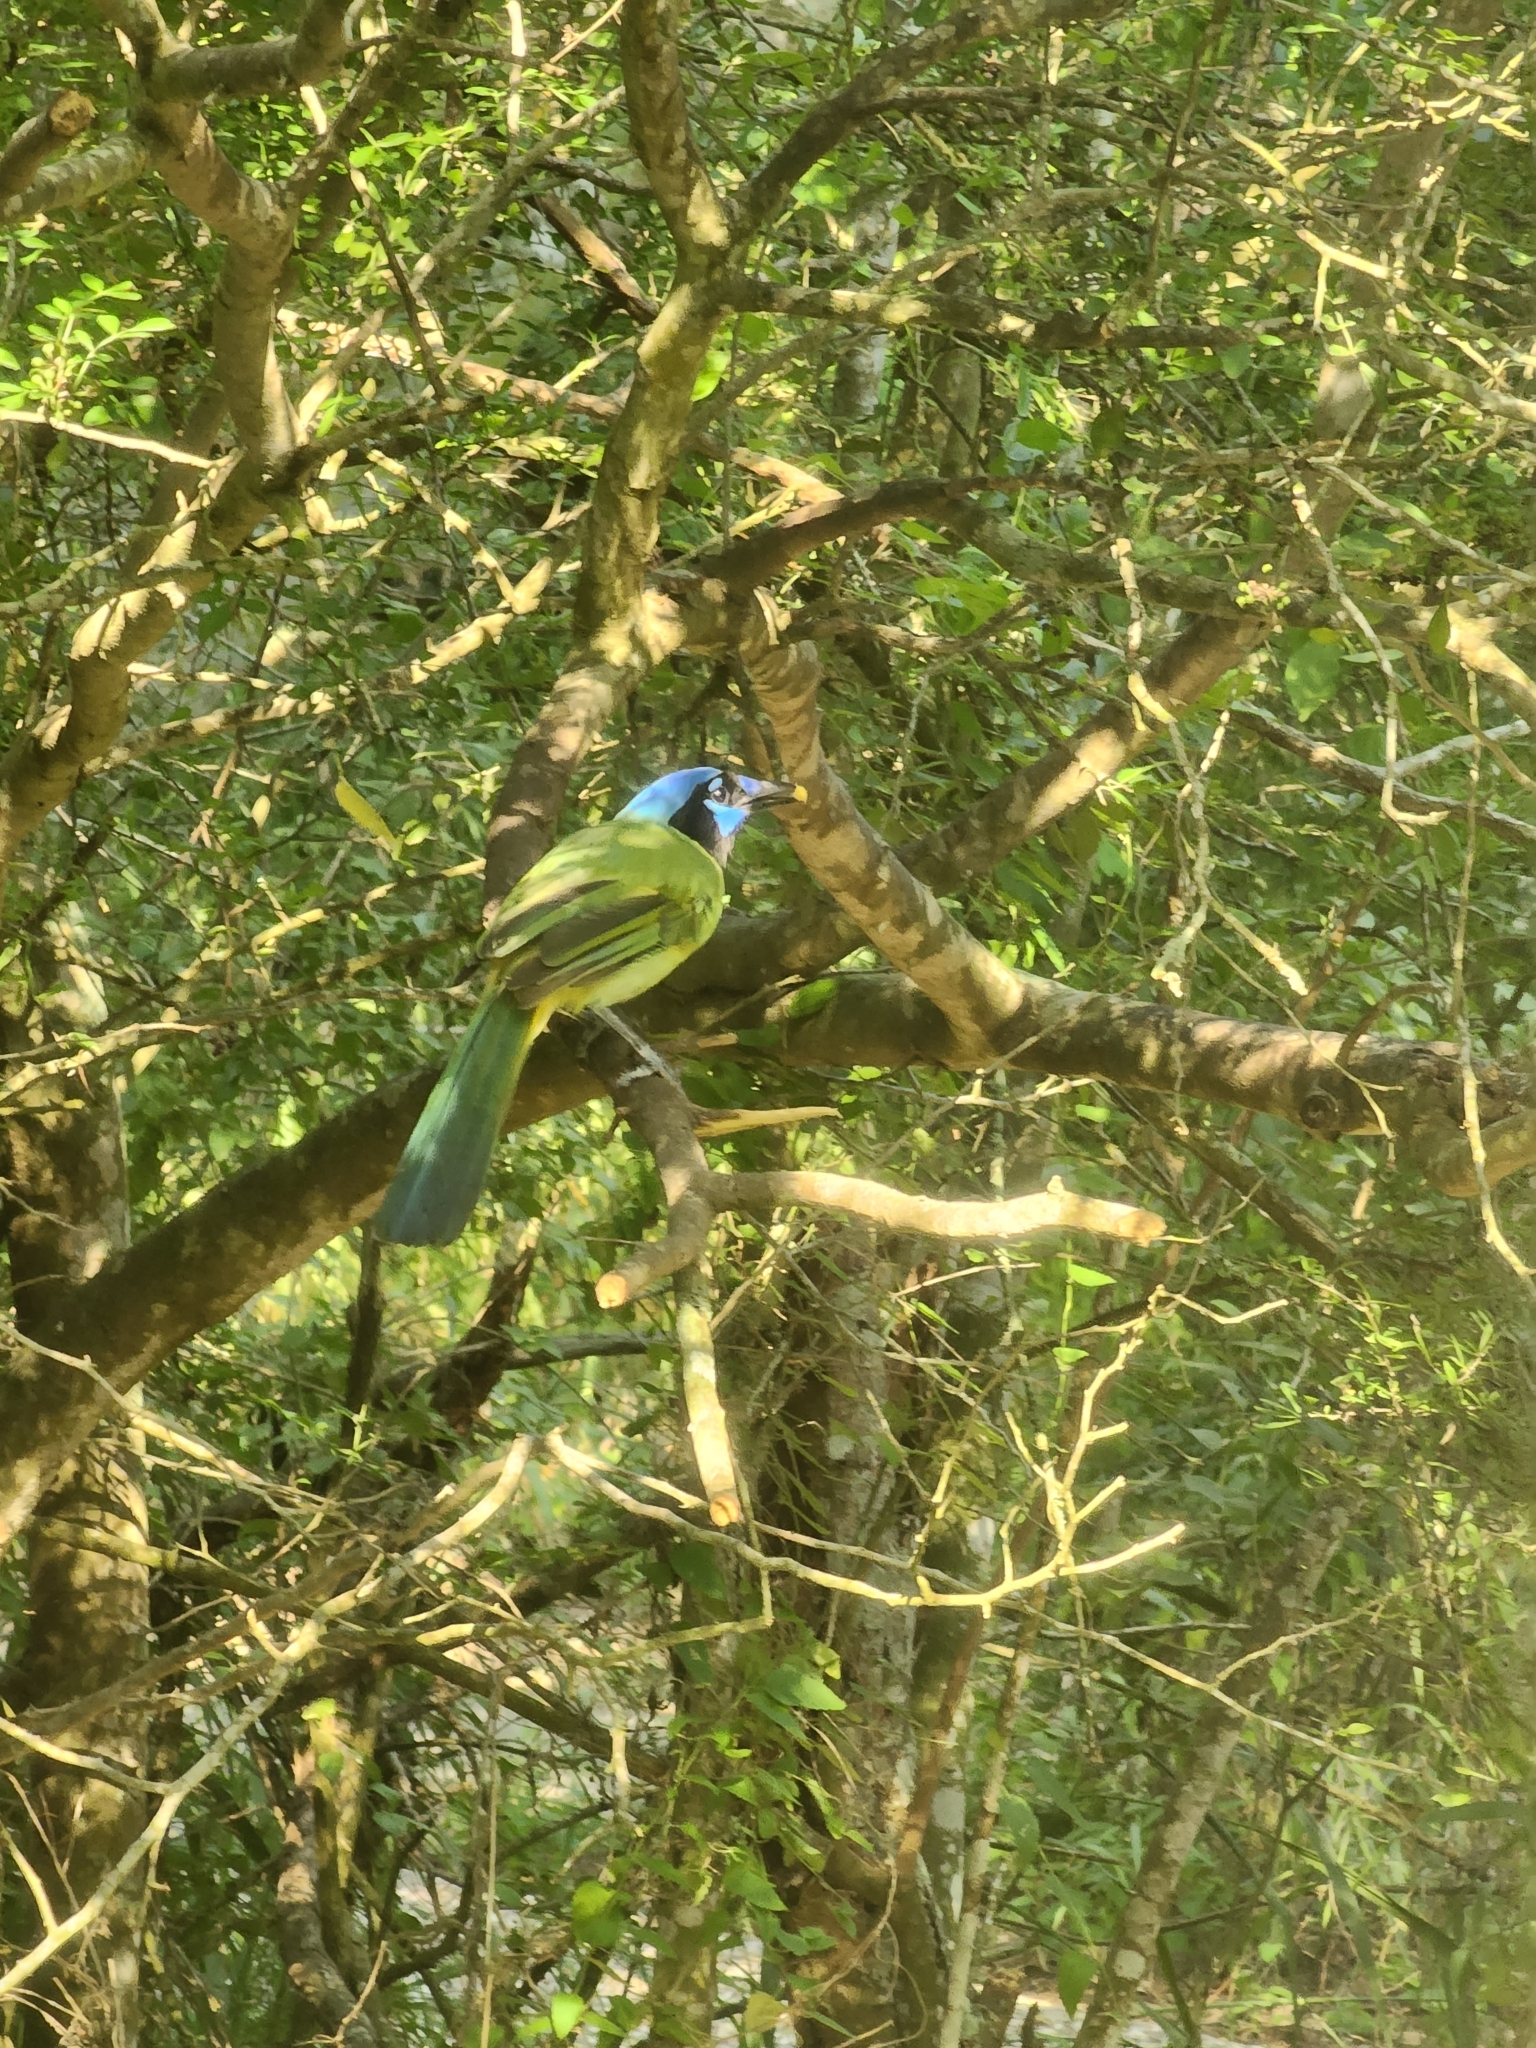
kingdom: Animalia
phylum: Chordata
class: Aves
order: Passeriformes
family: Corvidae
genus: Cyanocorax
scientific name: Cyanocorax yncas
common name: Green jay
